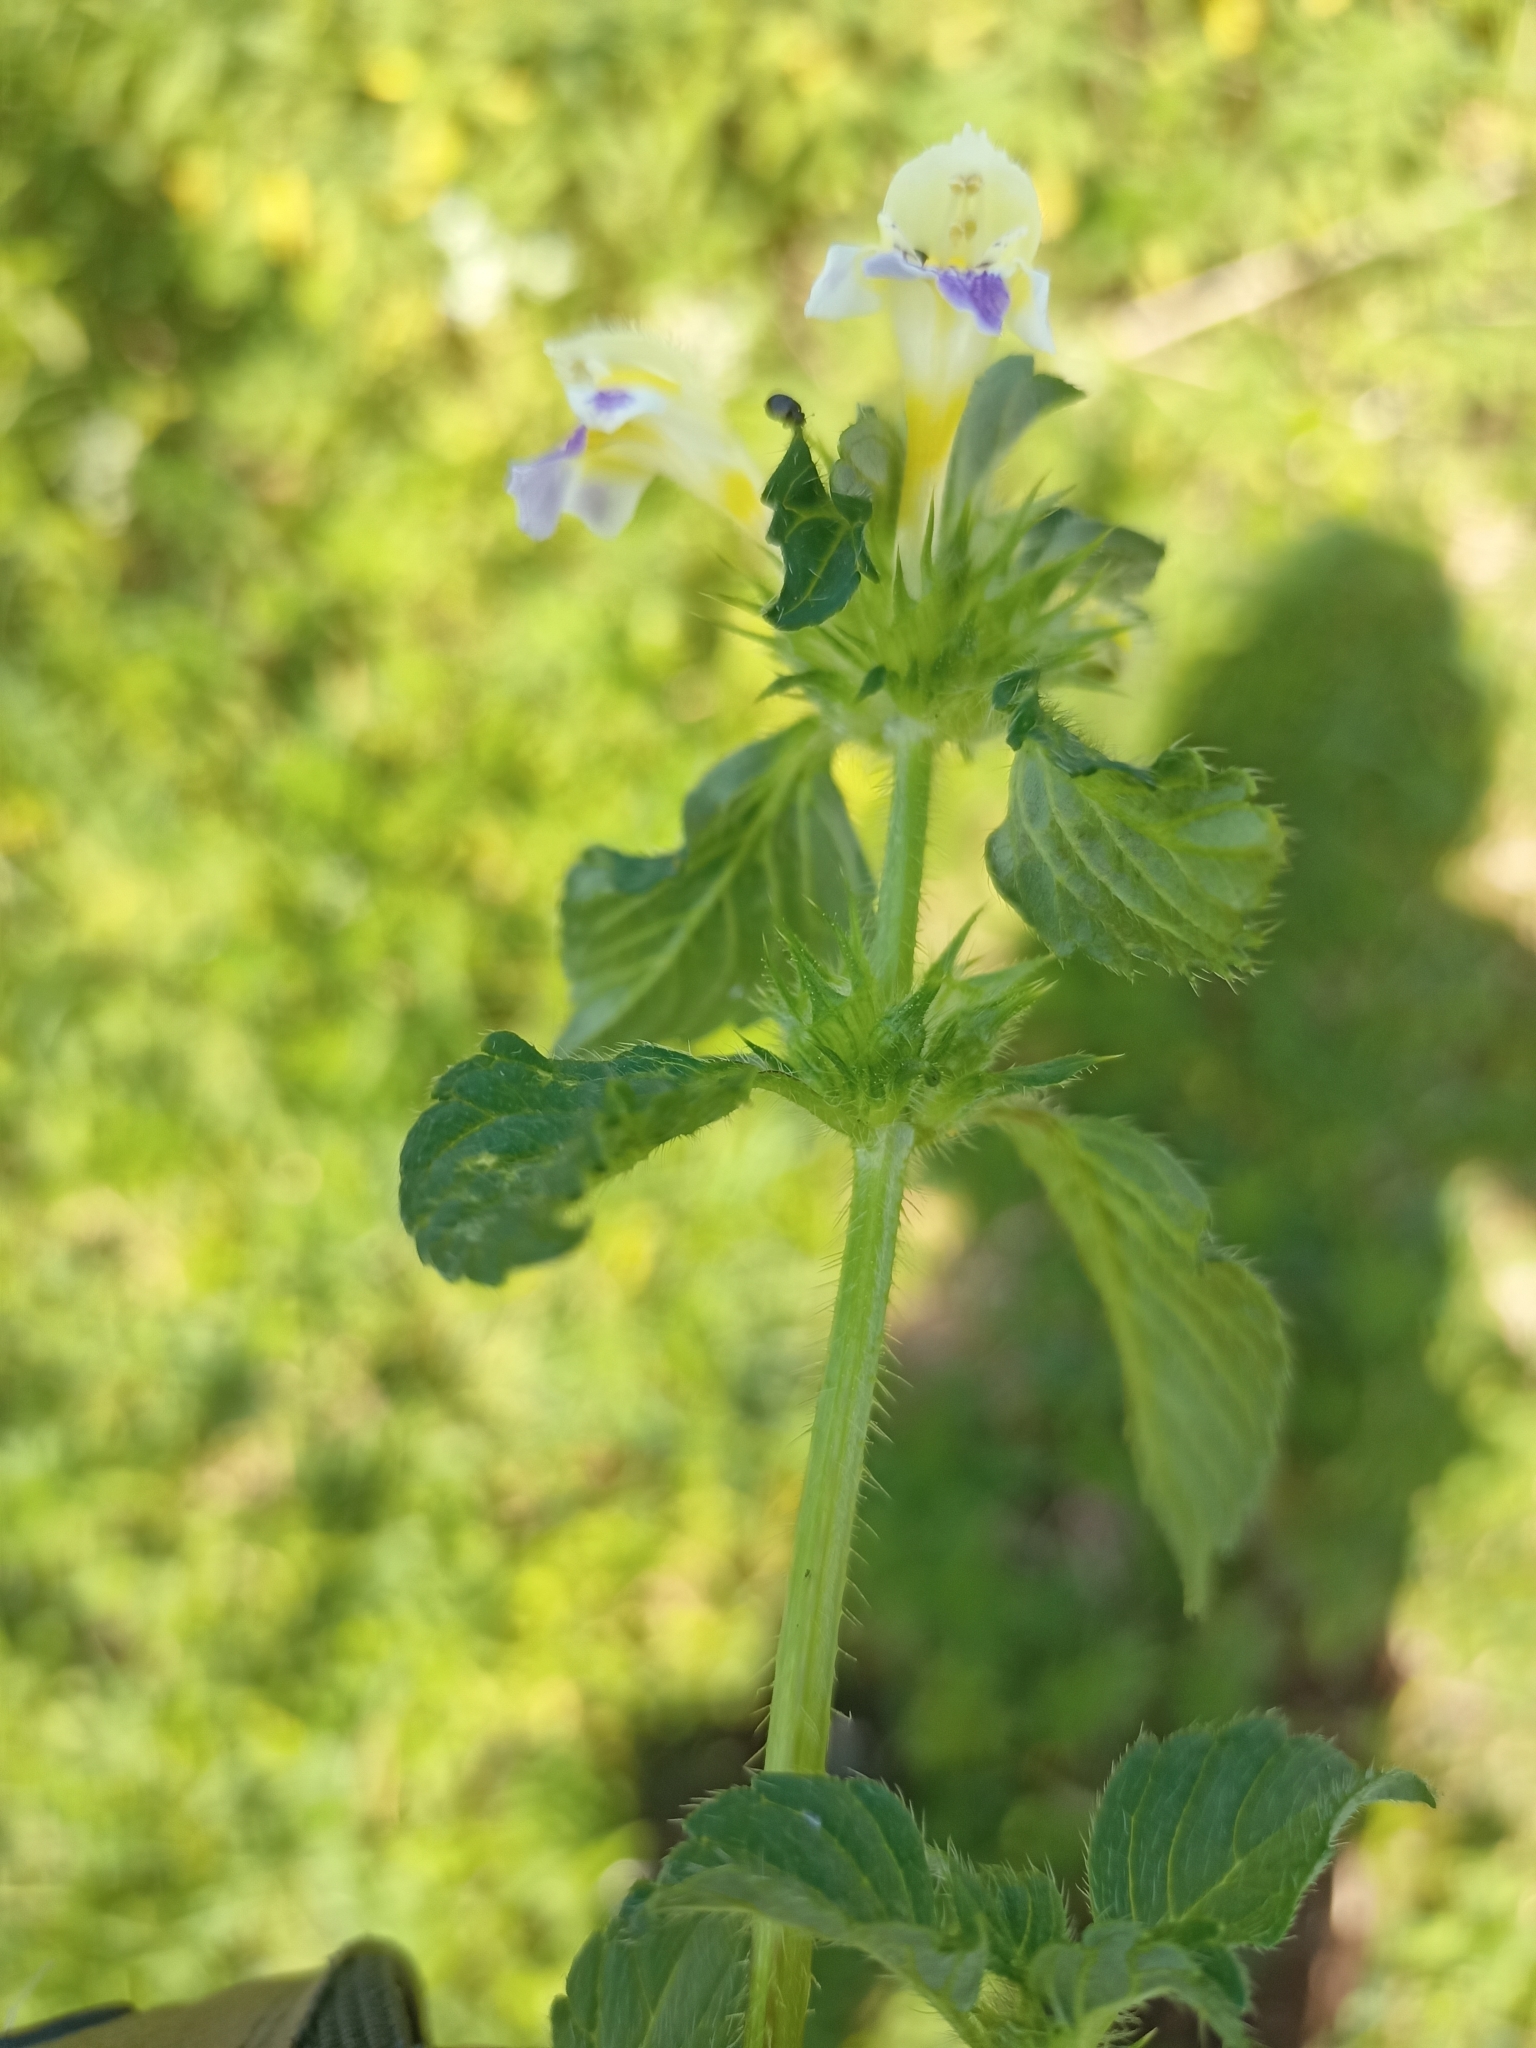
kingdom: Plantae
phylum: Tracheophyta
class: Magnoliopsida
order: Lamiales
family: Lamiaceae
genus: Galeopsis
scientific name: Galeopsis speciosa
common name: Large-flowered hemp-nettle
